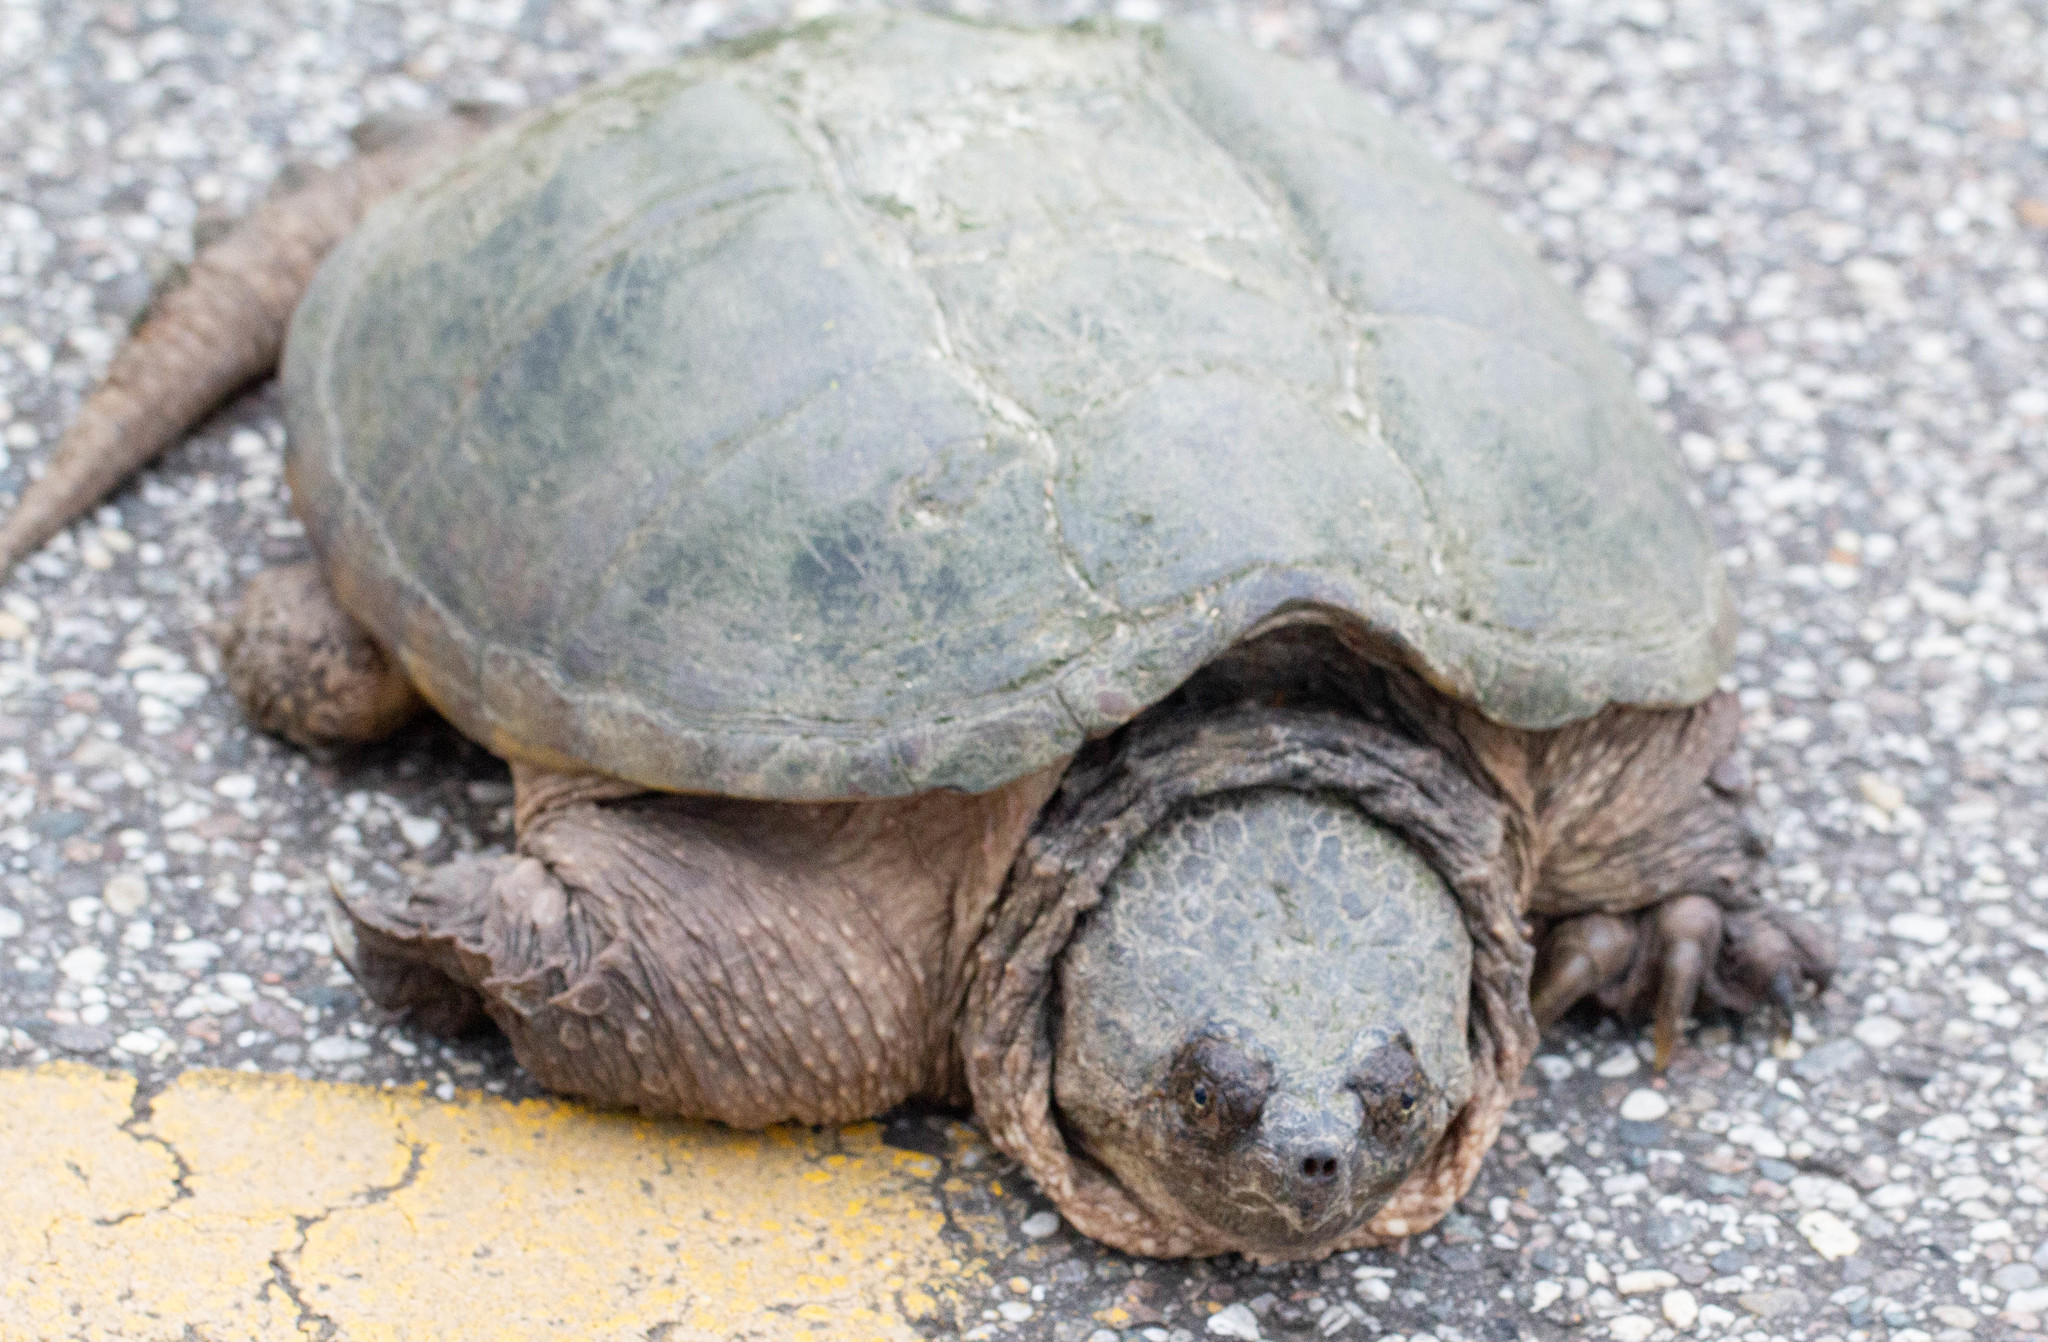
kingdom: Animalia
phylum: Chordata
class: Testudines
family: Chelydridae
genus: Chelydra
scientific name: Chelydra serpentina
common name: Common snapping turtle
